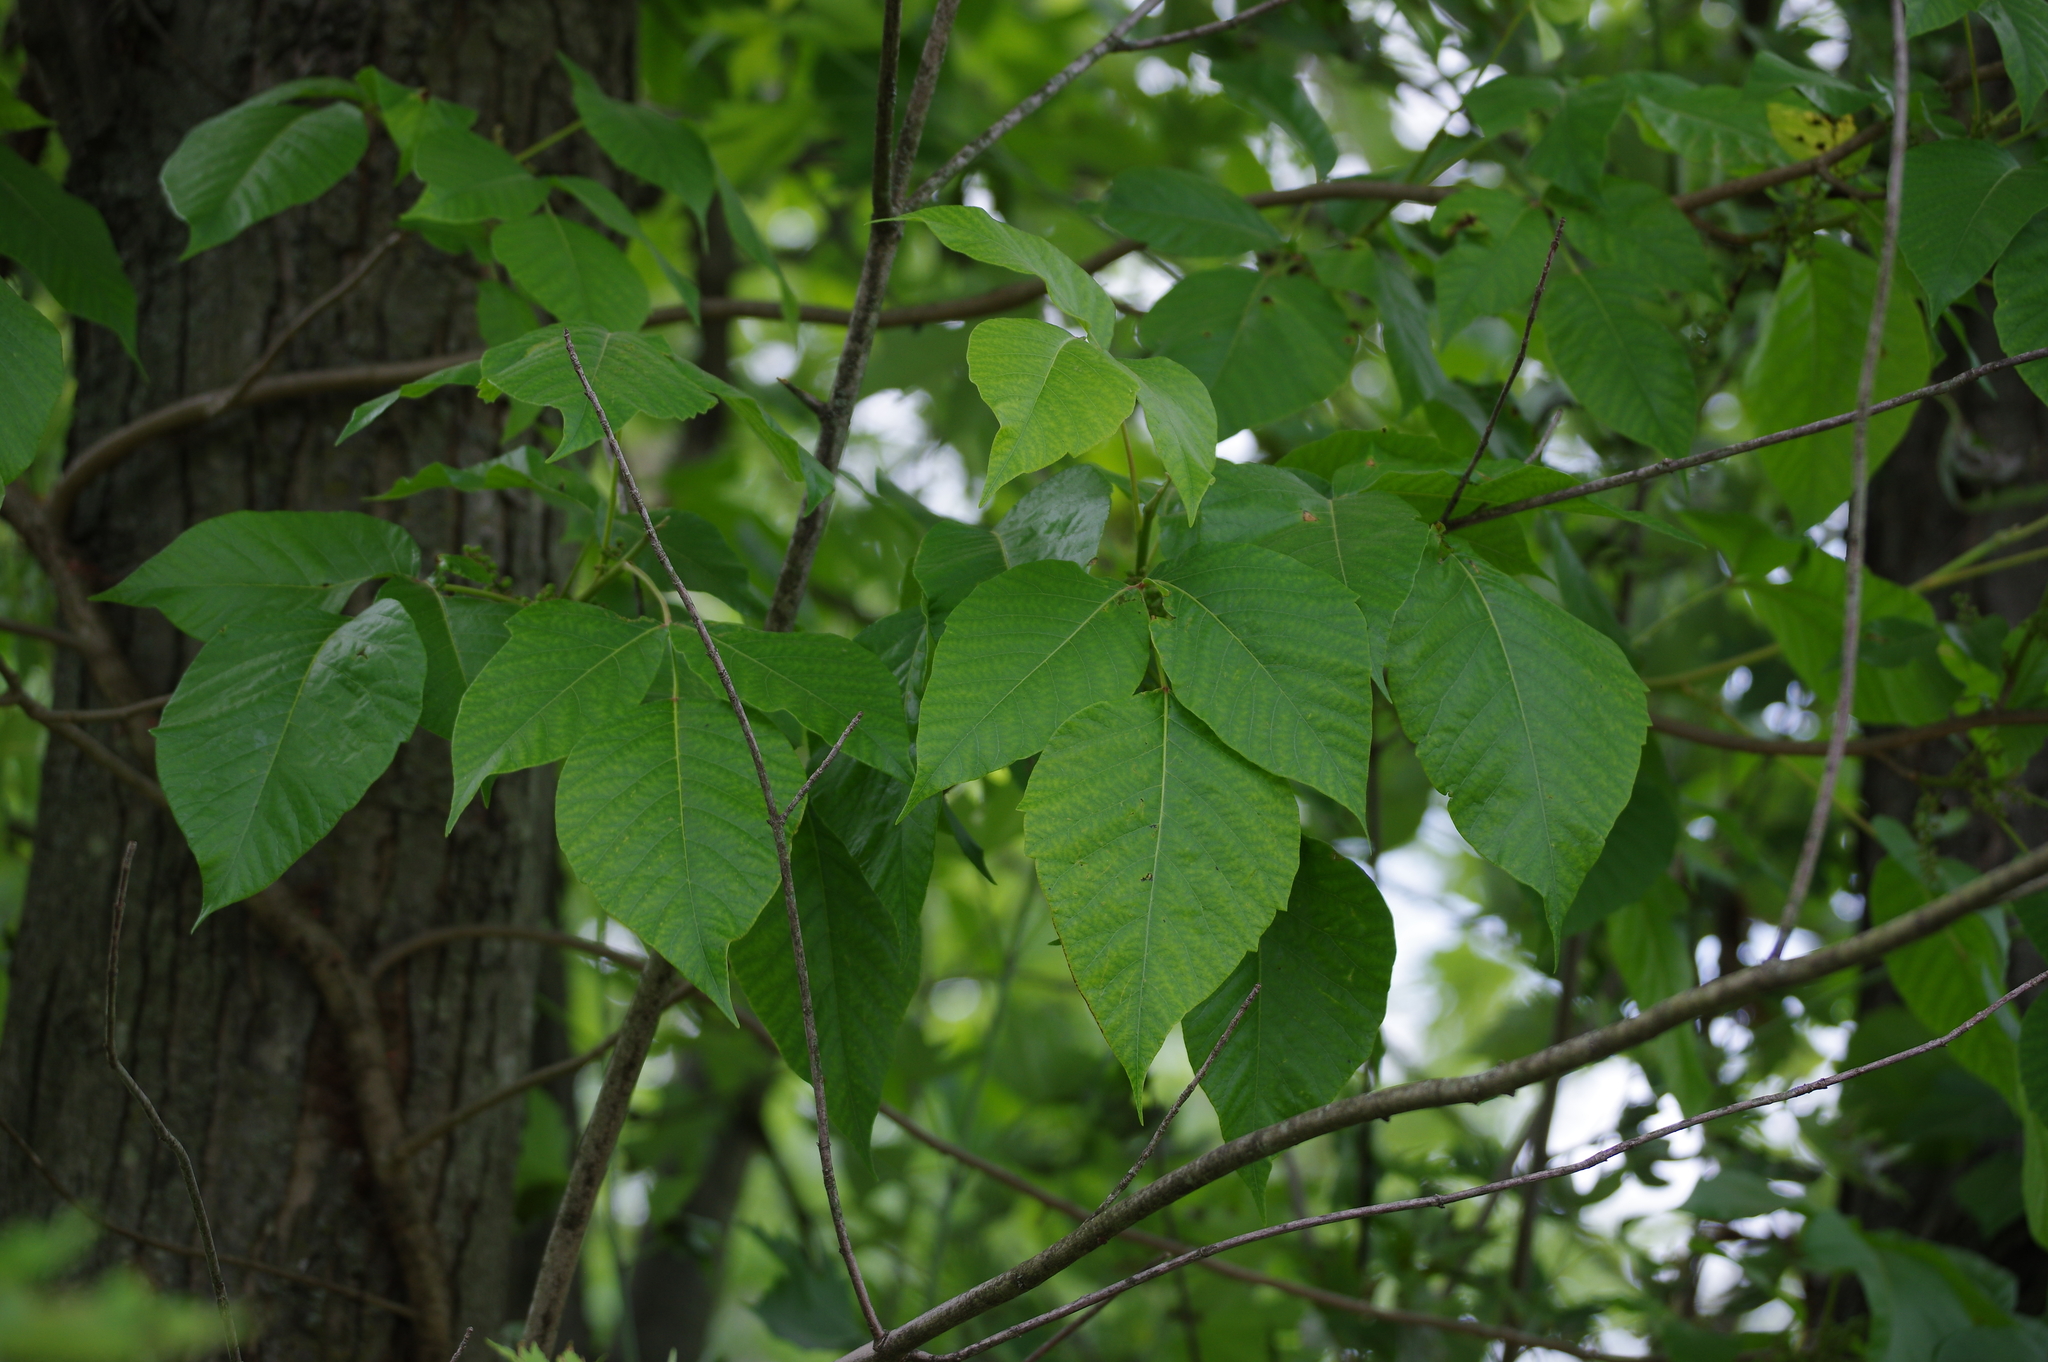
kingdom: Plantae
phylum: Tracheophyta
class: Magnoliopsida
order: Sapindales
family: Anacardiaceae
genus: Toxicodendron
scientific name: Toxicodendron radicans
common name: Poison ivy
